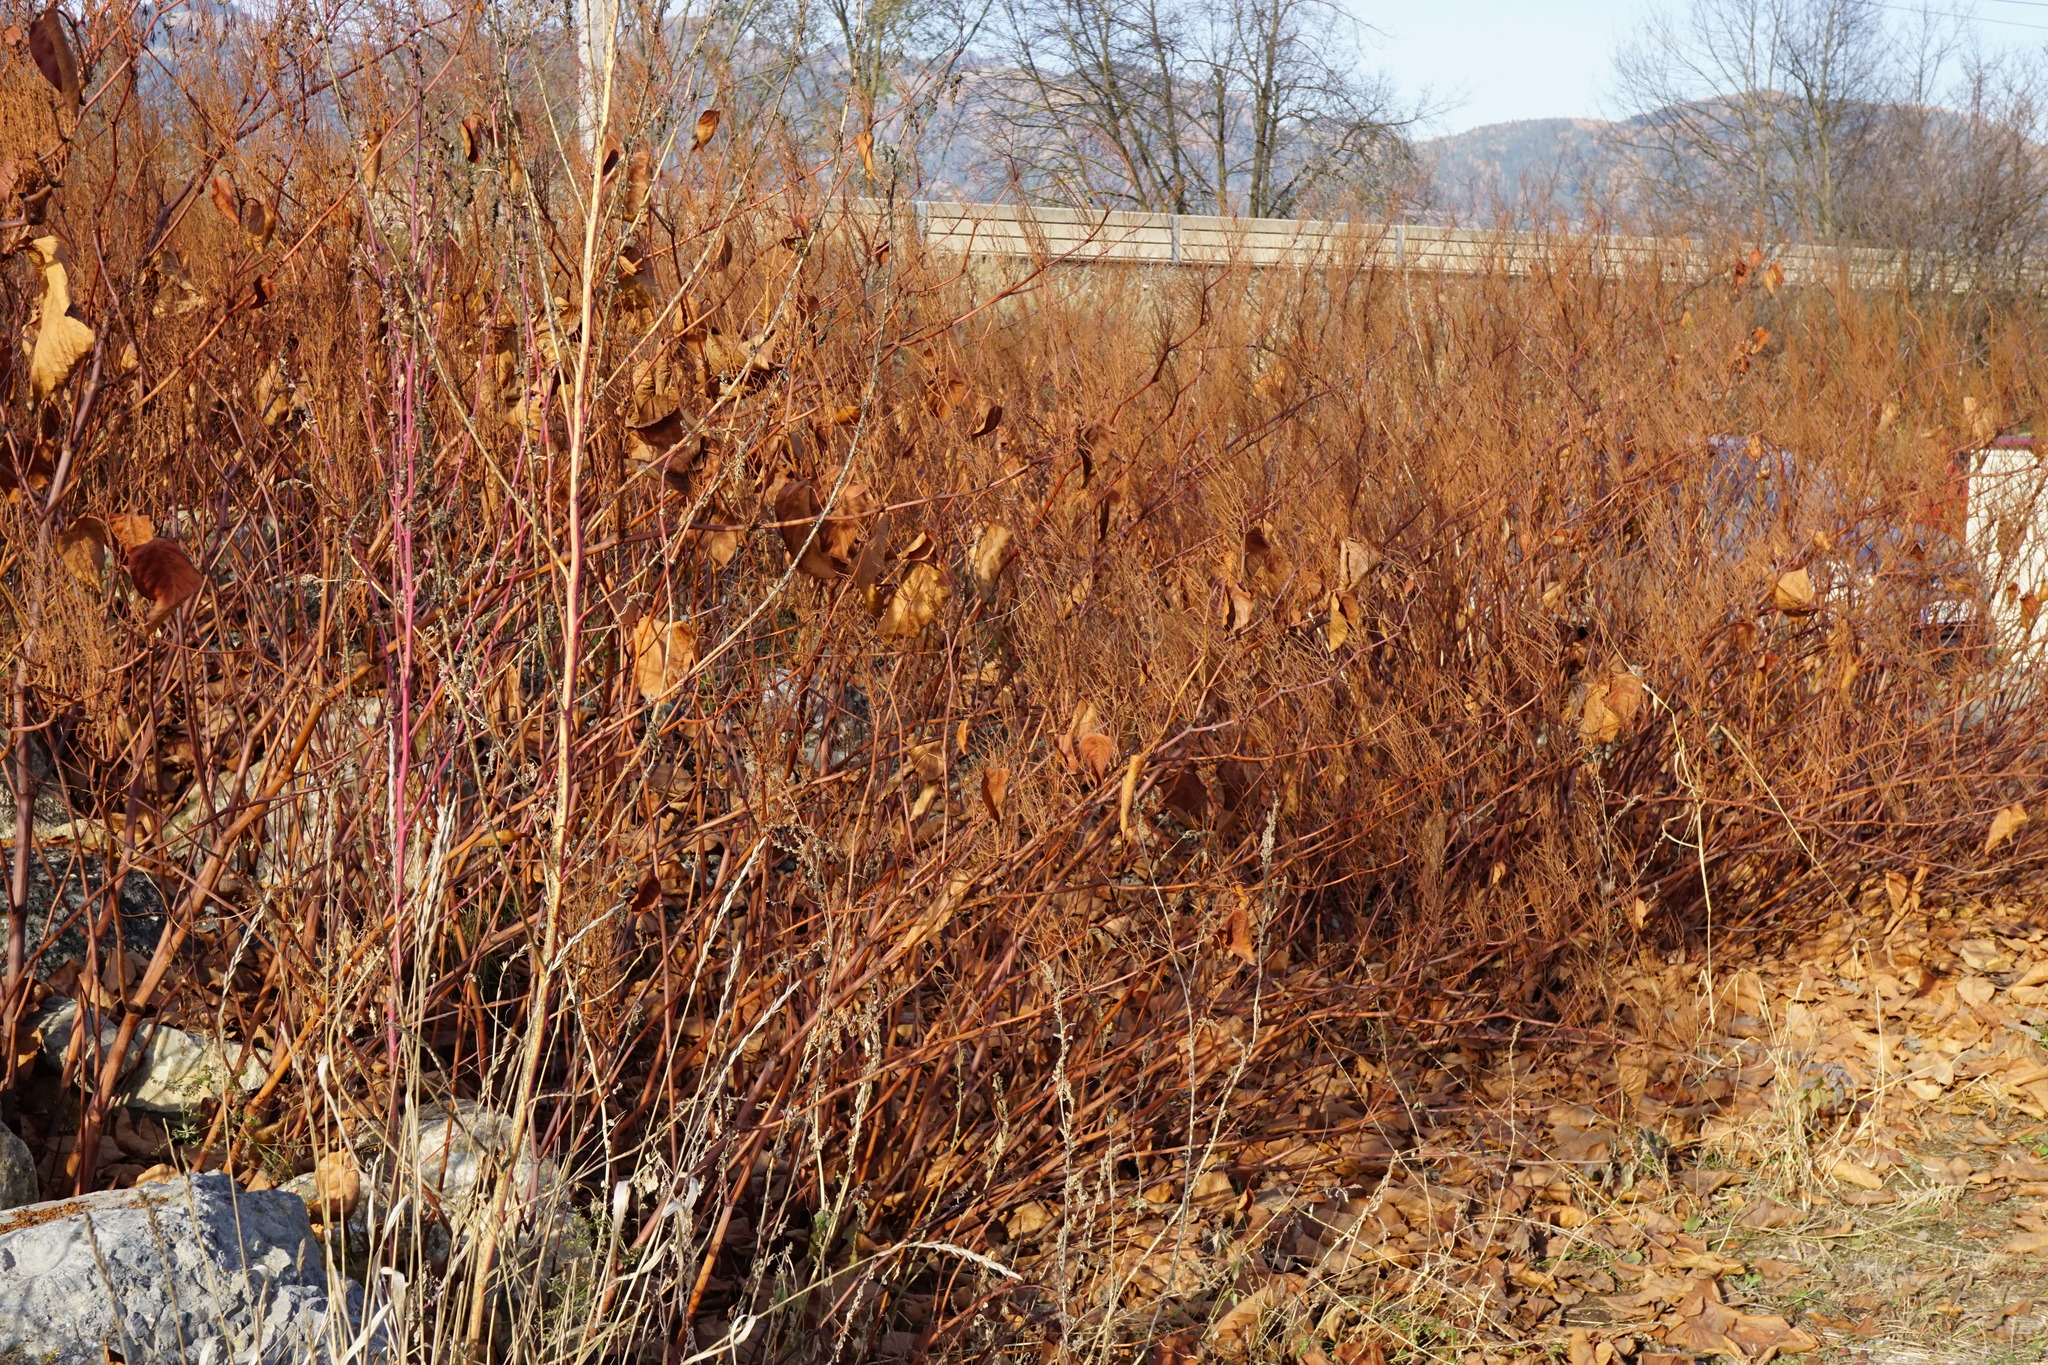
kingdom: Plantae
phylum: Tracheophyta
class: Magnoliopsida
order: Caryophyllales
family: Polygonaceae
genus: Reynoutria
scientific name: Reynoutria bohemica
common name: Bohemian knotweed
